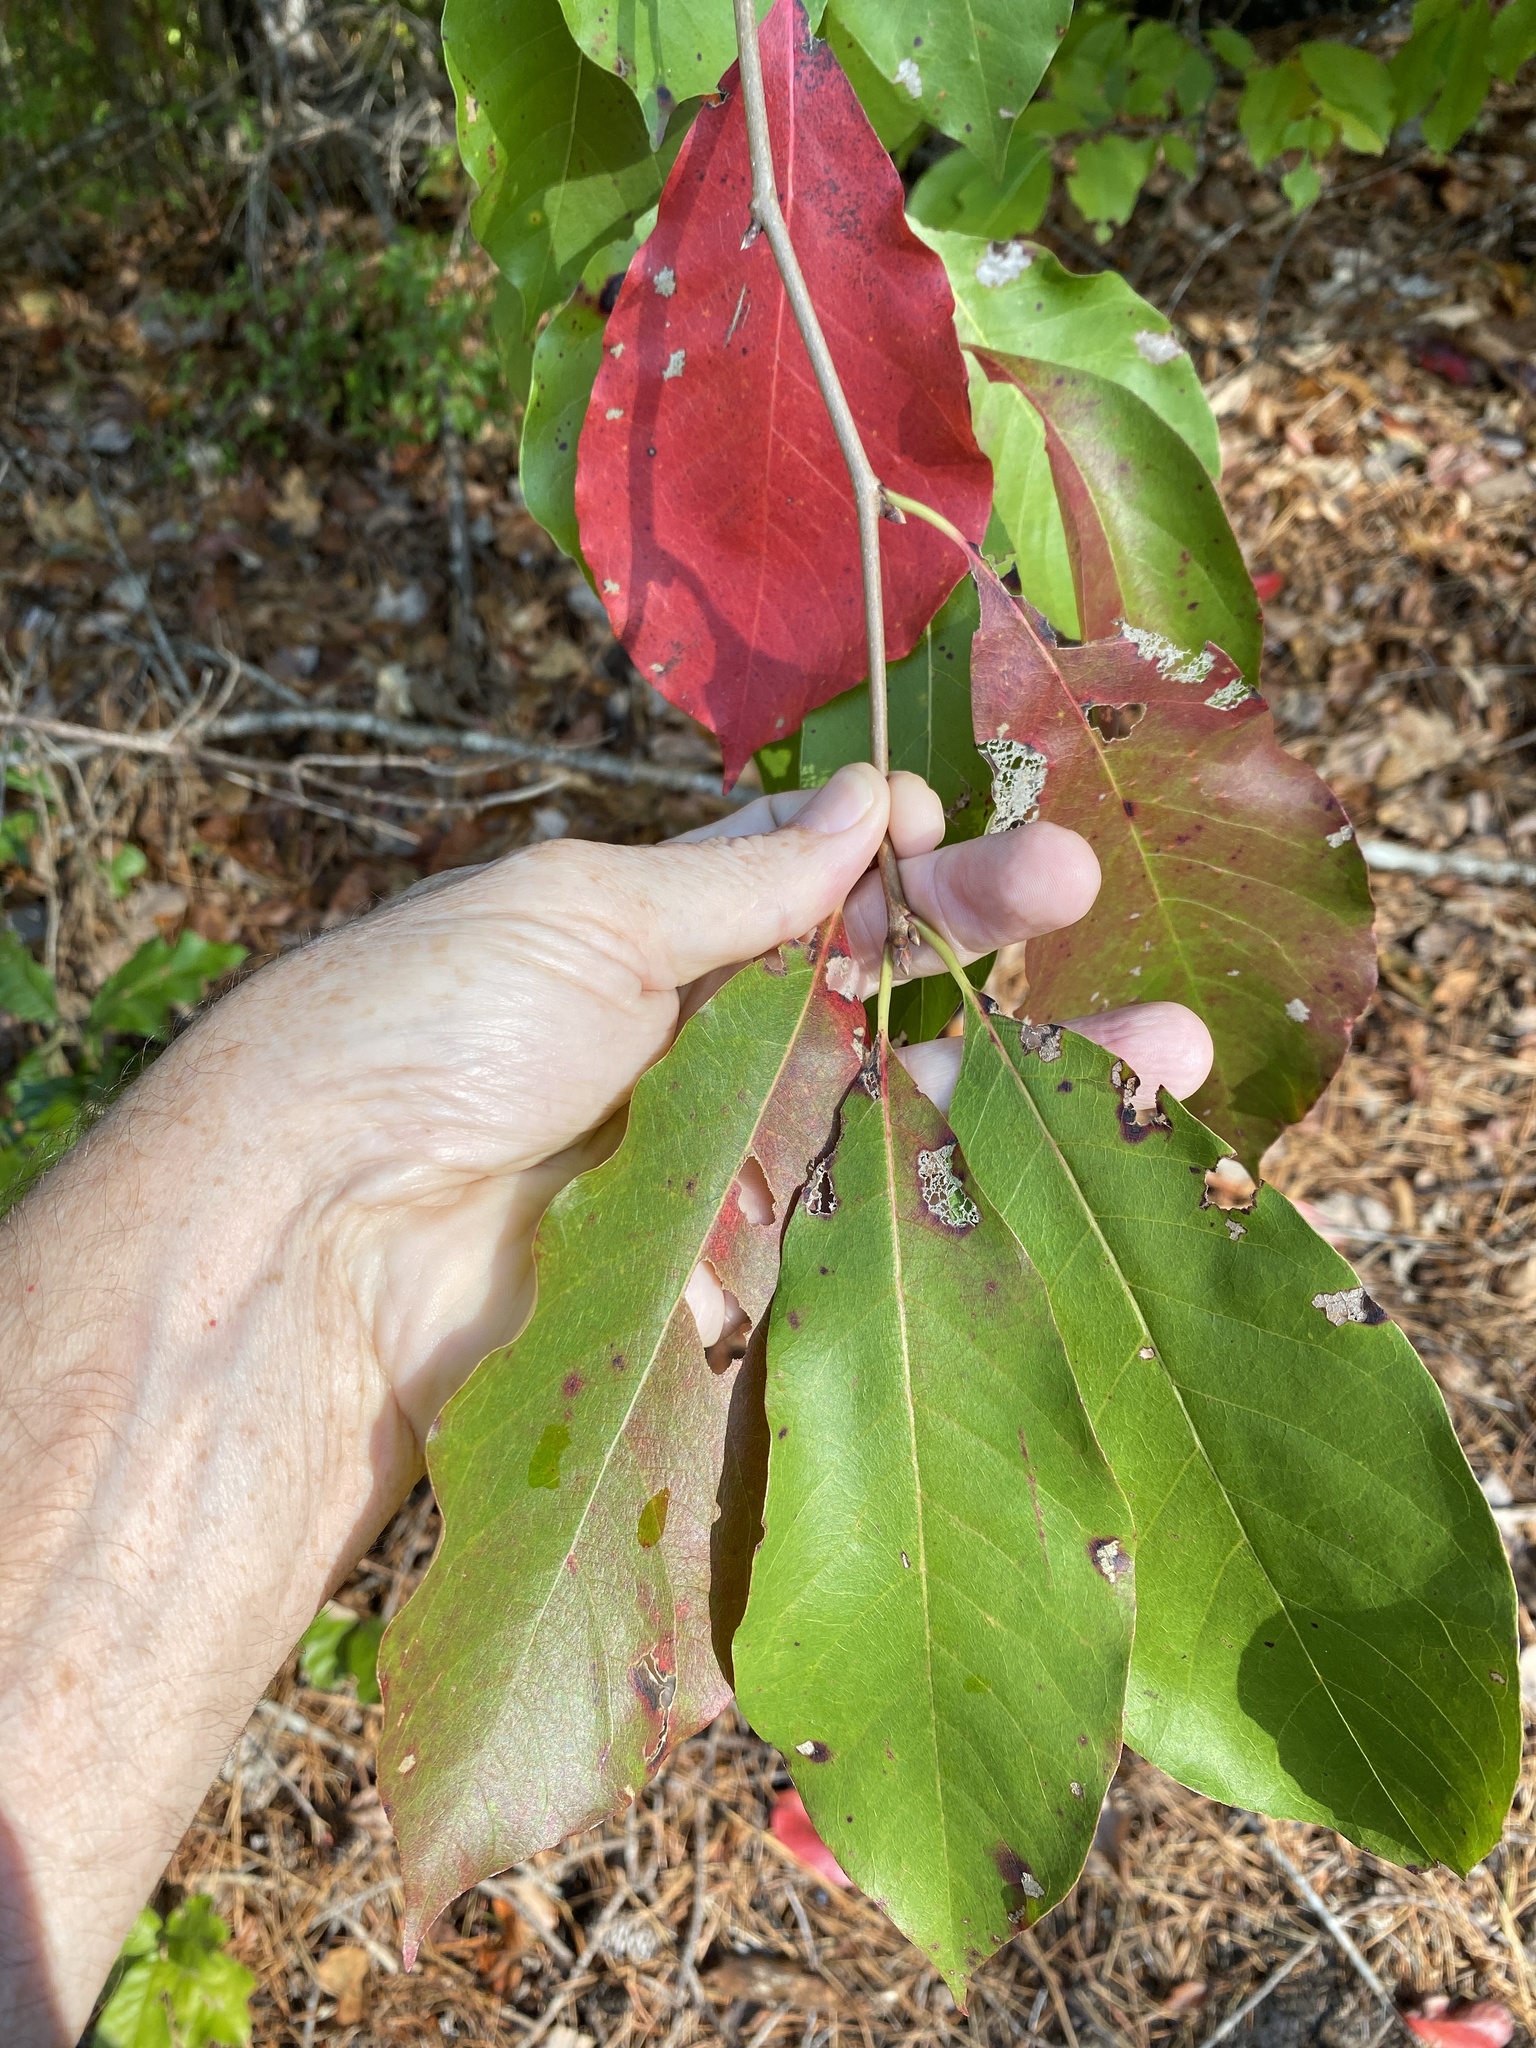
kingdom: Plantae
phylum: Tracheophyta
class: Magnoliopsida
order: Cornales
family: Nyssaceae
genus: Nyssa
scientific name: Nyssa sylvatica
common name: Black tupelo
